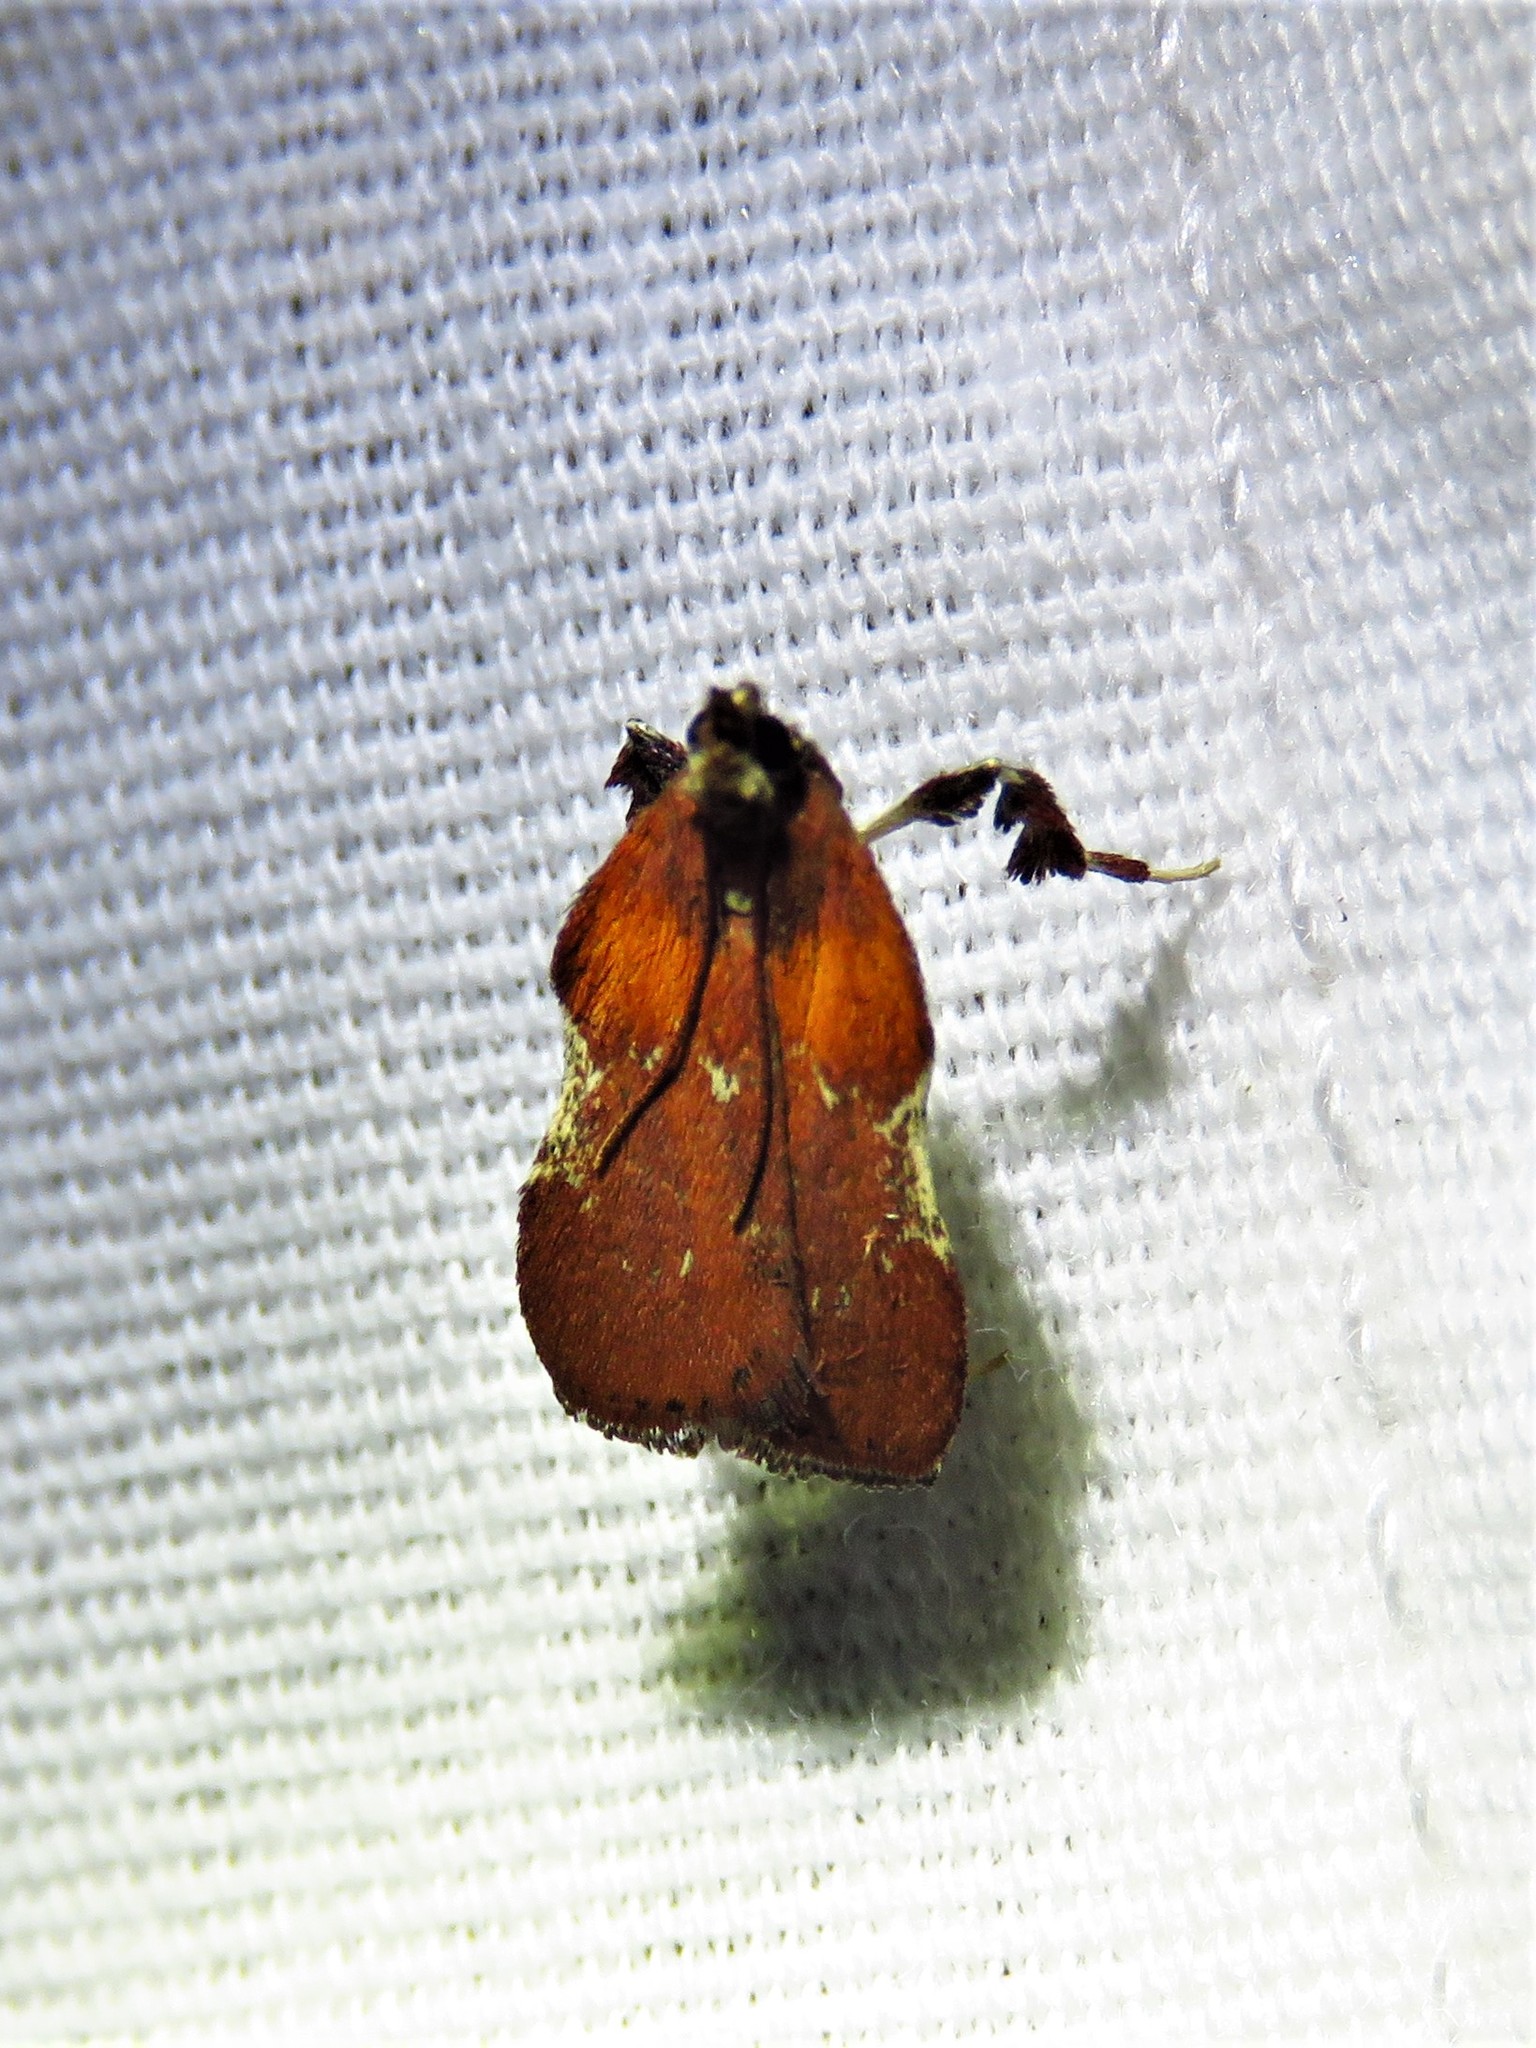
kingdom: Animalia
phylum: Arthropoda
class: Insecta
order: Lepidoptera
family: Pyralidae
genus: Galasa
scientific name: Galasa nigrinodis
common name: Boxwood leaftier moth
